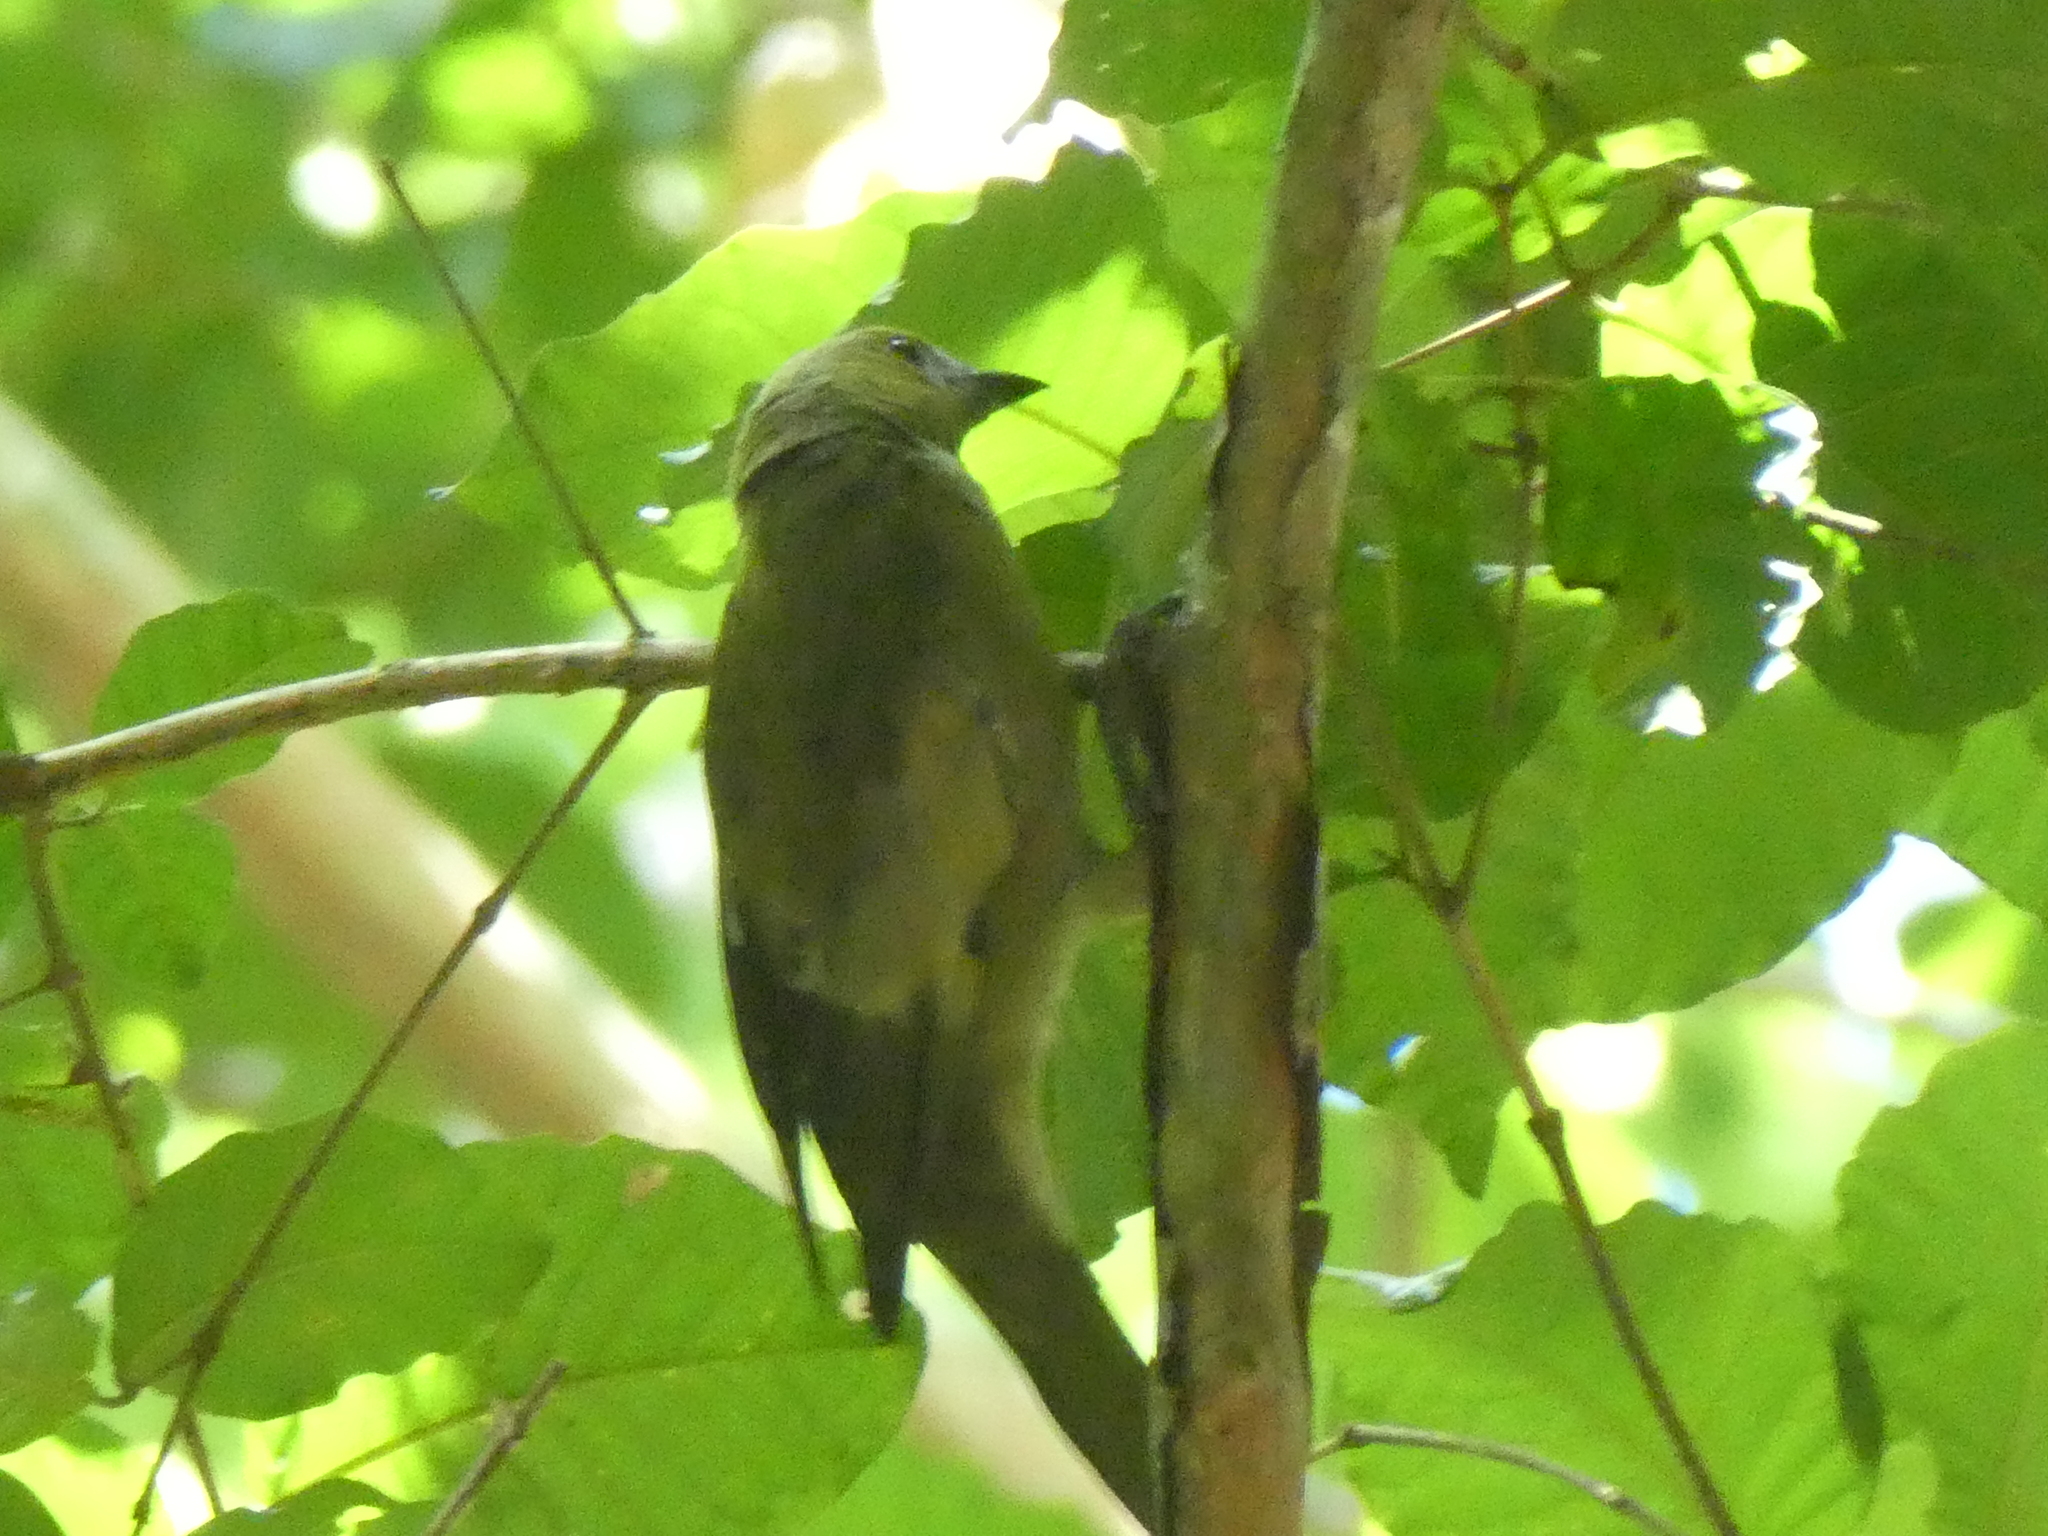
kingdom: Animalia
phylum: Chordata
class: Aves
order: Passeriformes
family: Thraupidae
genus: Thraupis
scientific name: Thraupis palmarum
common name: Palm tanager
